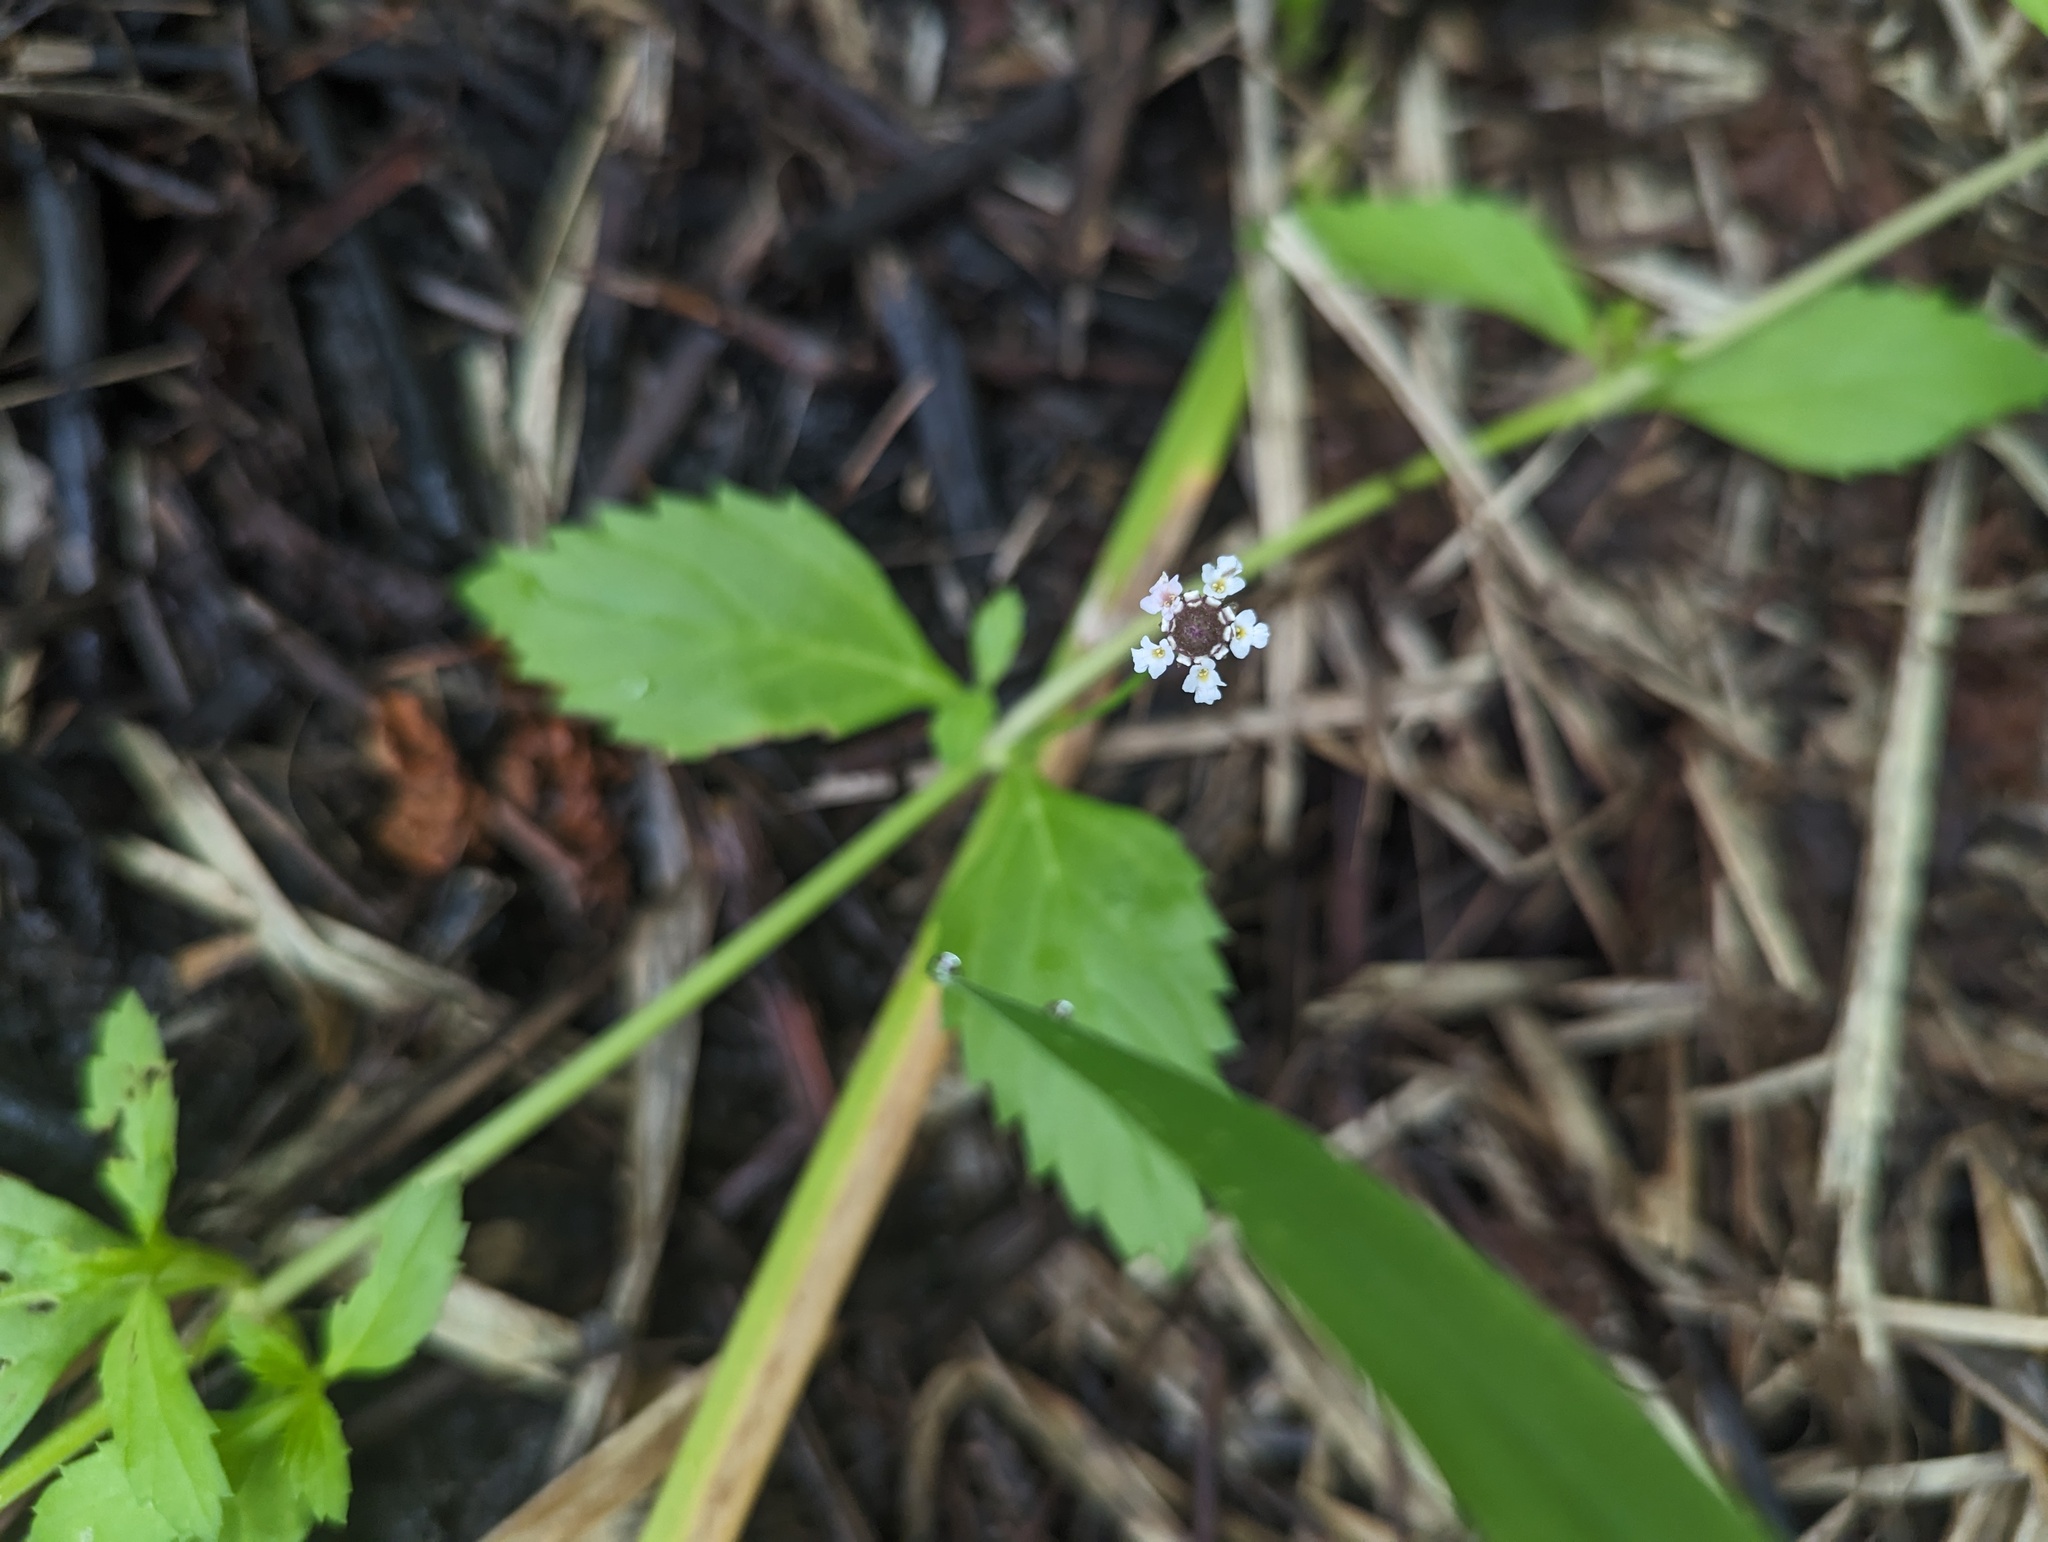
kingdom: Plantae
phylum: Tracheophyta
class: Magnoliopsida
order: Lamiales
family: Verbenaceae
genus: Phyla
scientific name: Phyla lanceolata
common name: Northern fogfruit
